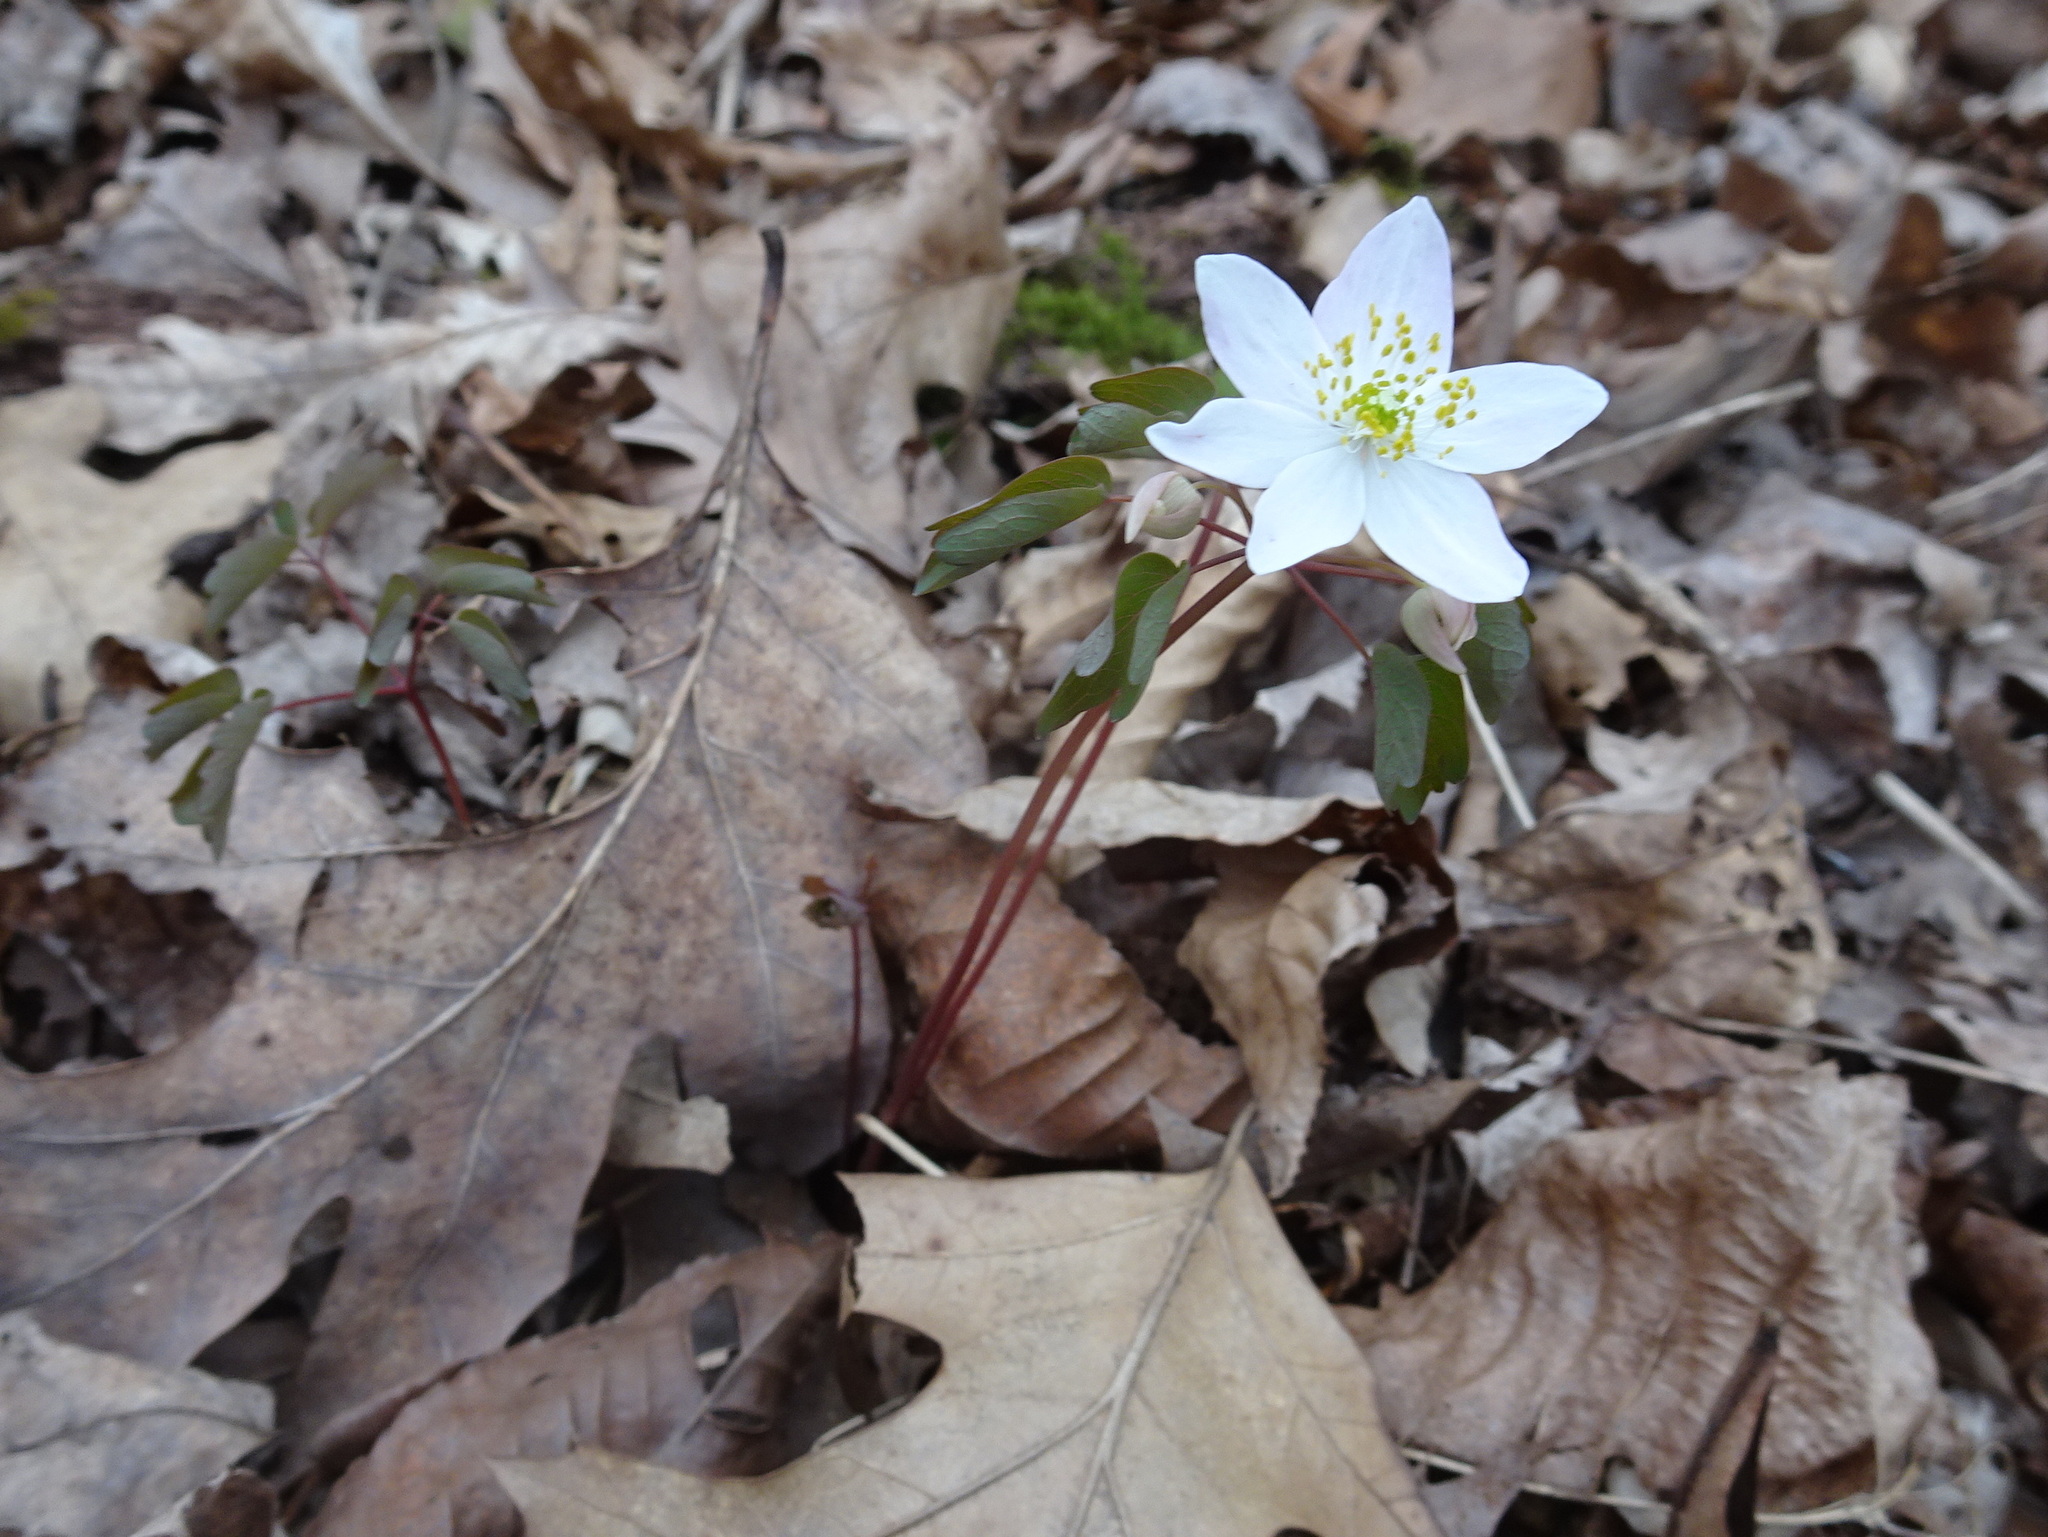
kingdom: Plantae
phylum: Tracheophyta
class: Magnoliopsida
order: Ranunculales
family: Ranunculaceae
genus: Thalictrum
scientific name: Thalictrum thalictroides
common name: Rue-anemone
